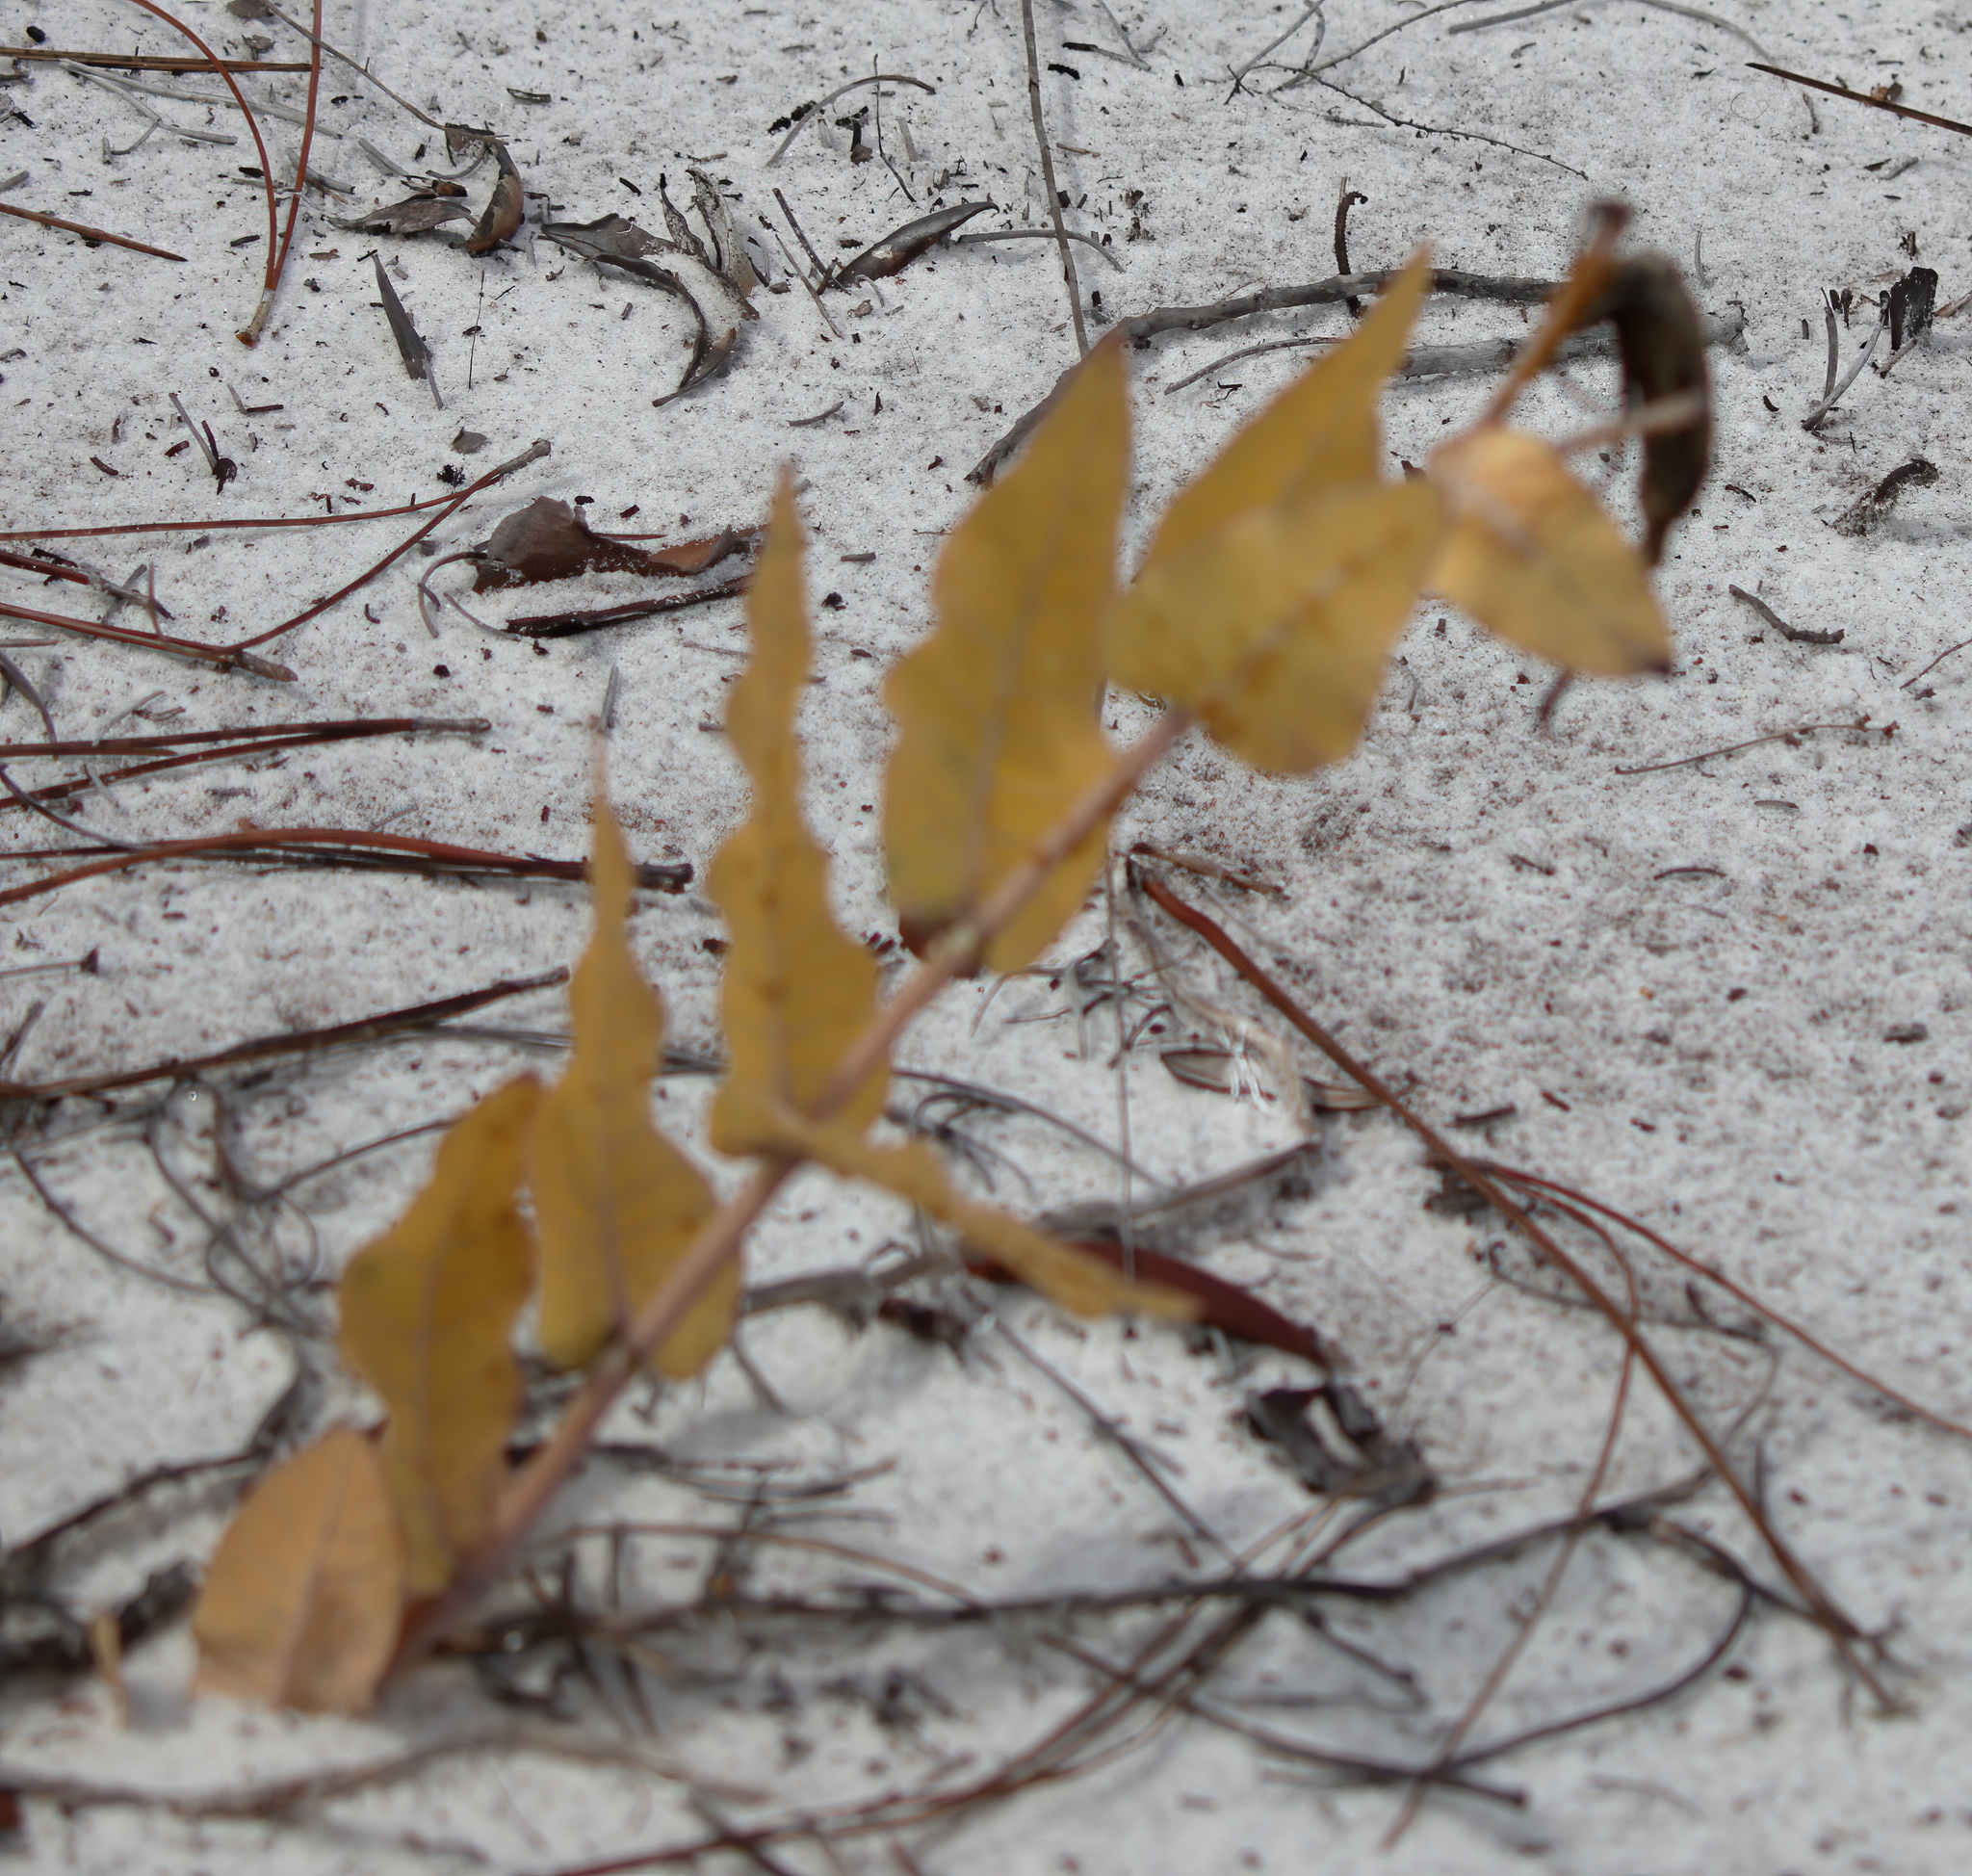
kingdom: Plantae
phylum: Tracheophyta
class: Magnoliopsida
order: Gentianales
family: Apocynaceae
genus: Asclepias
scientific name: Asclepias humistrata
